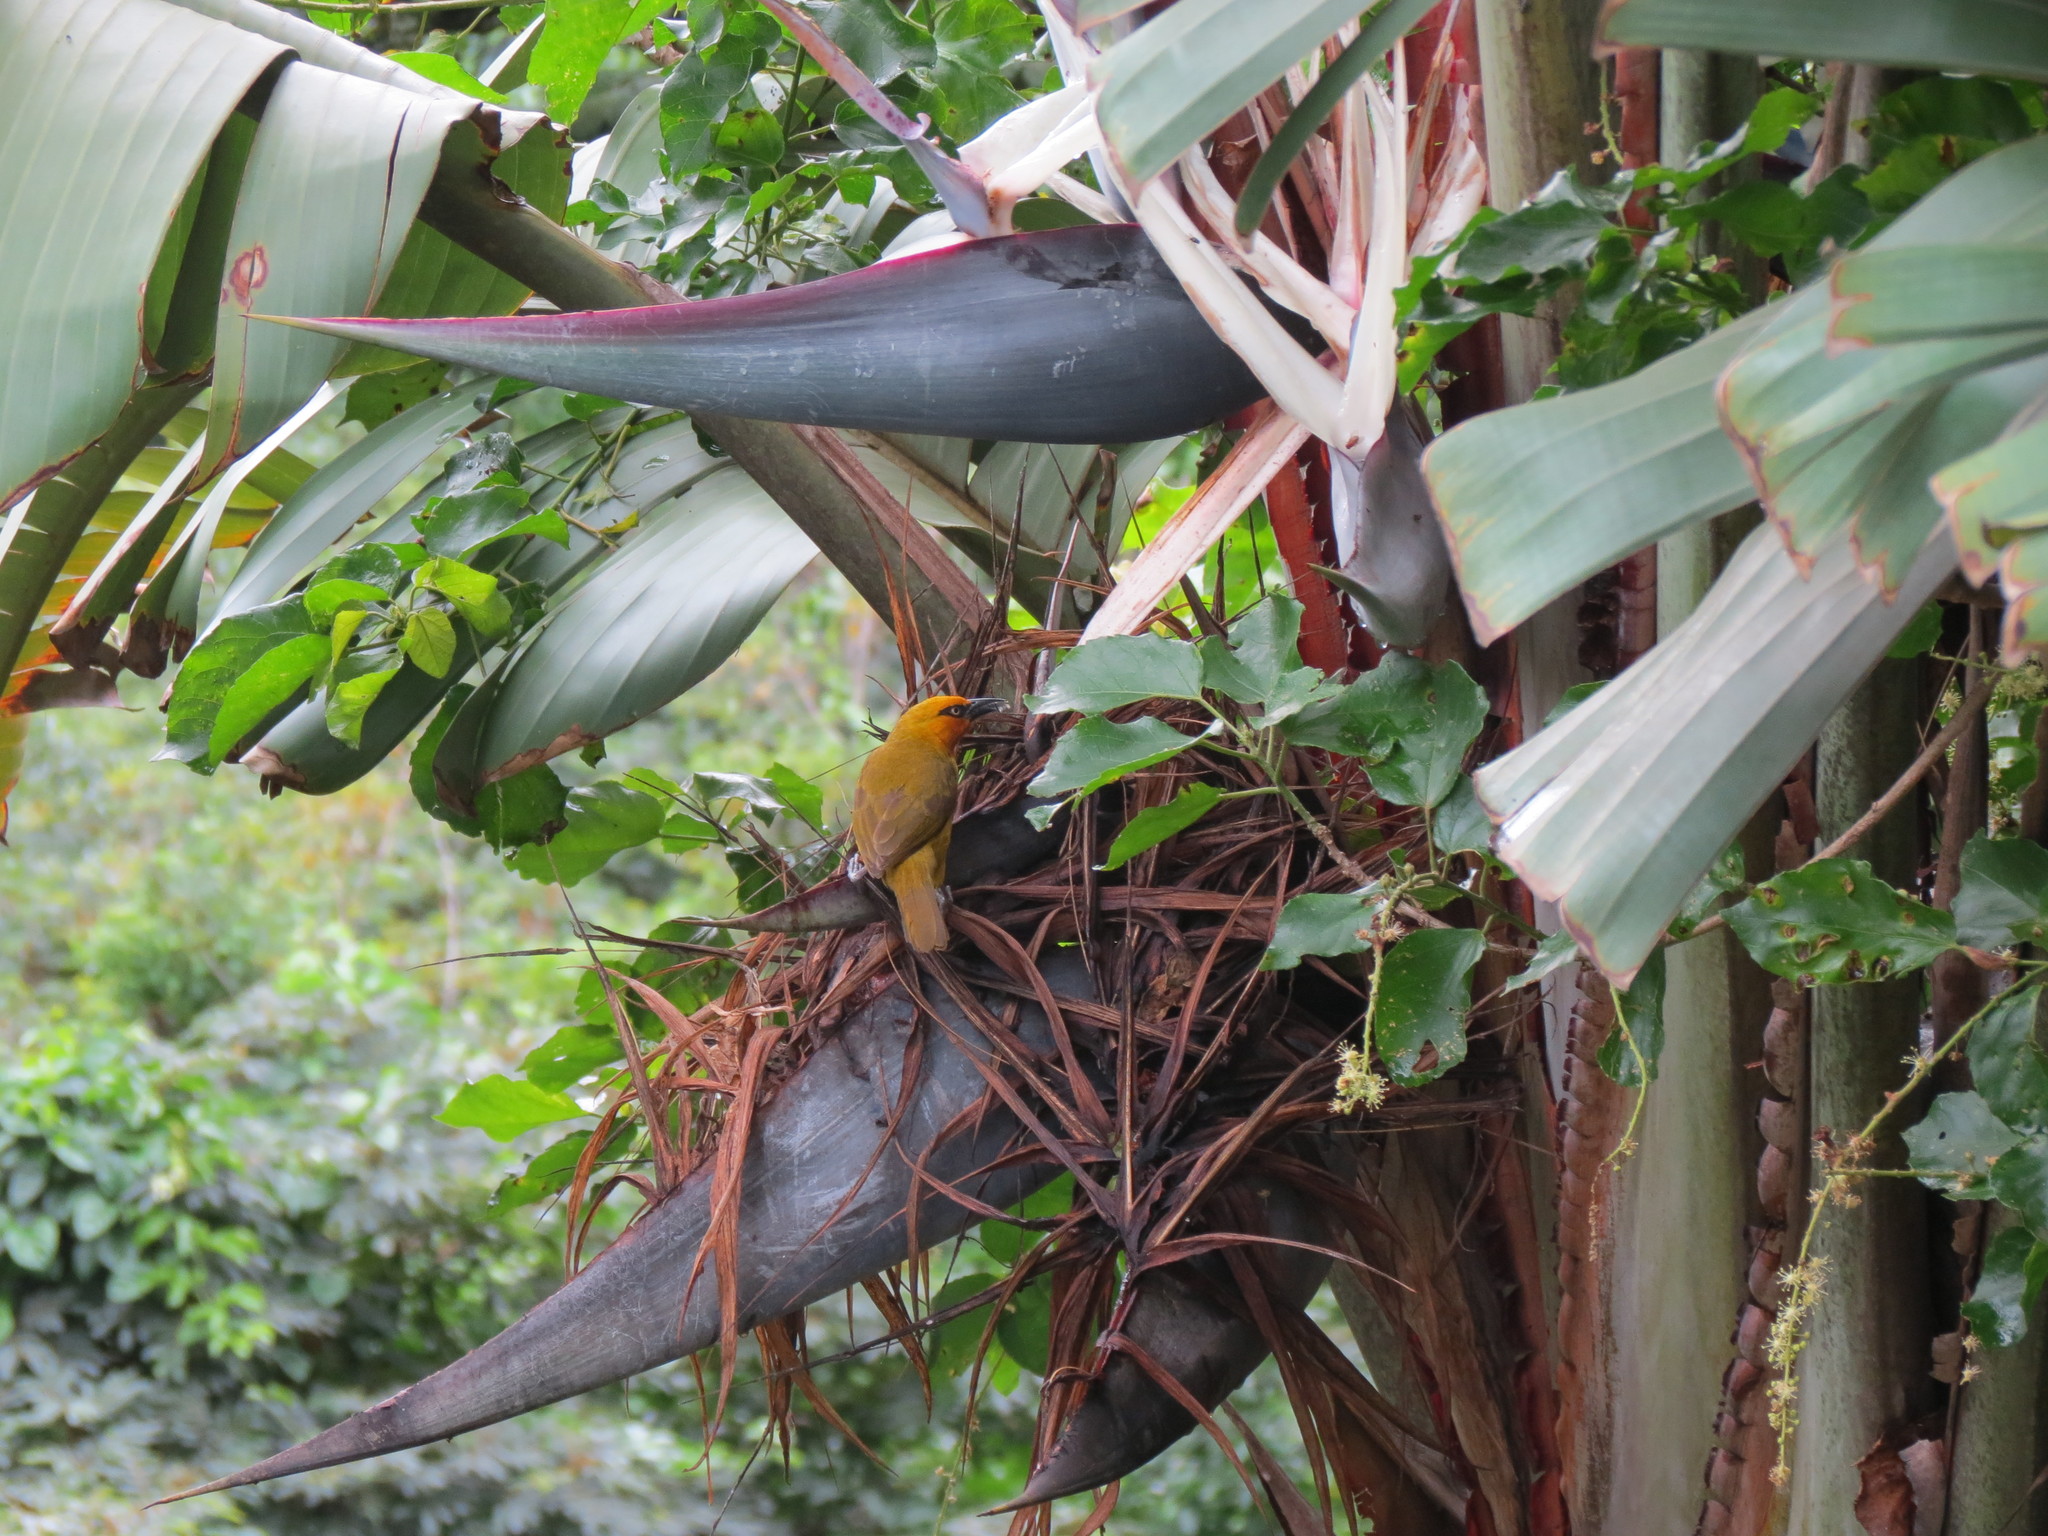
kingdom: Animalia
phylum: Chordata
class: Aves
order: Passeriformes
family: Ploceidae
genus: Ploceus
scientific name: Ploceus ocularis
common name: Spectacled weaver
